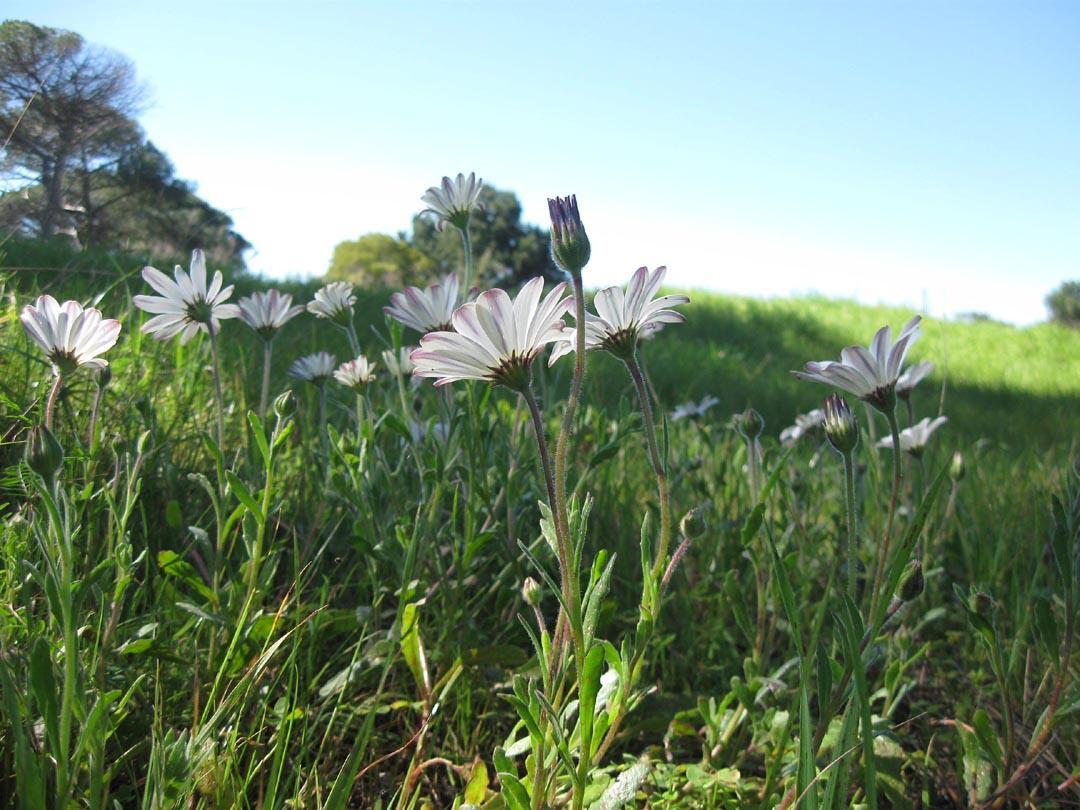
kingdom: Plantae
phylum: Tracheophyta
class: Magnoliopsida
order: Asterales
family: Asteraceae
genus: Dimorphotheca
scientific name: Dimorphotheca pluvialis
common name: Weather prophet
